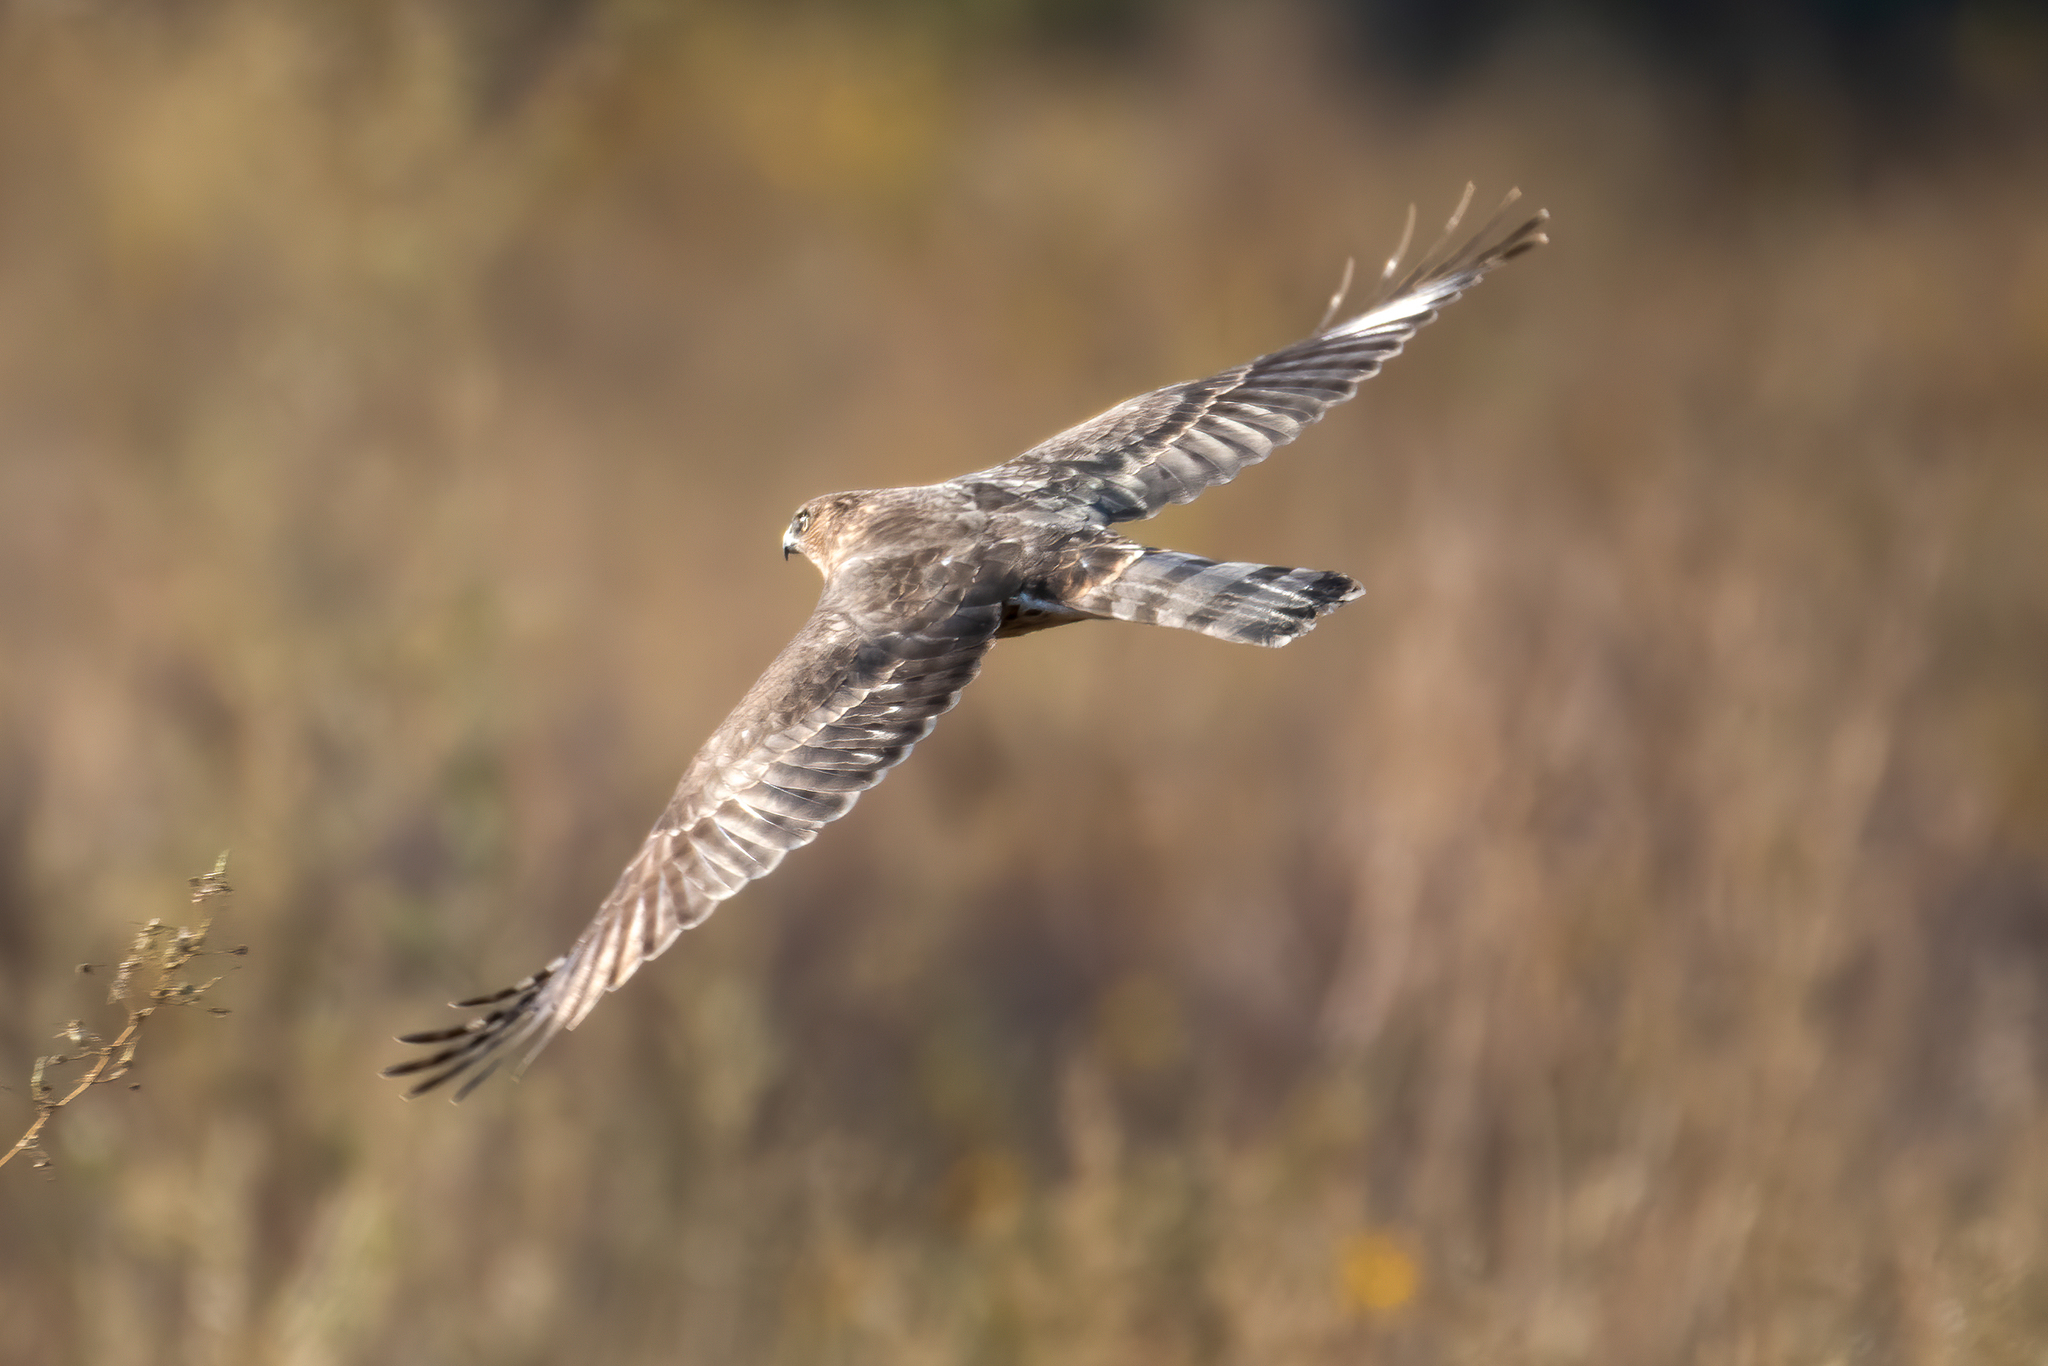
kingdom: Animalia
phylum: Chordata
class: Aves
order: Accipitriformes
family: Accipitridae
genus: Accipiter
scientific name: Accipiter cooperii
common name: Cooper's hawk
